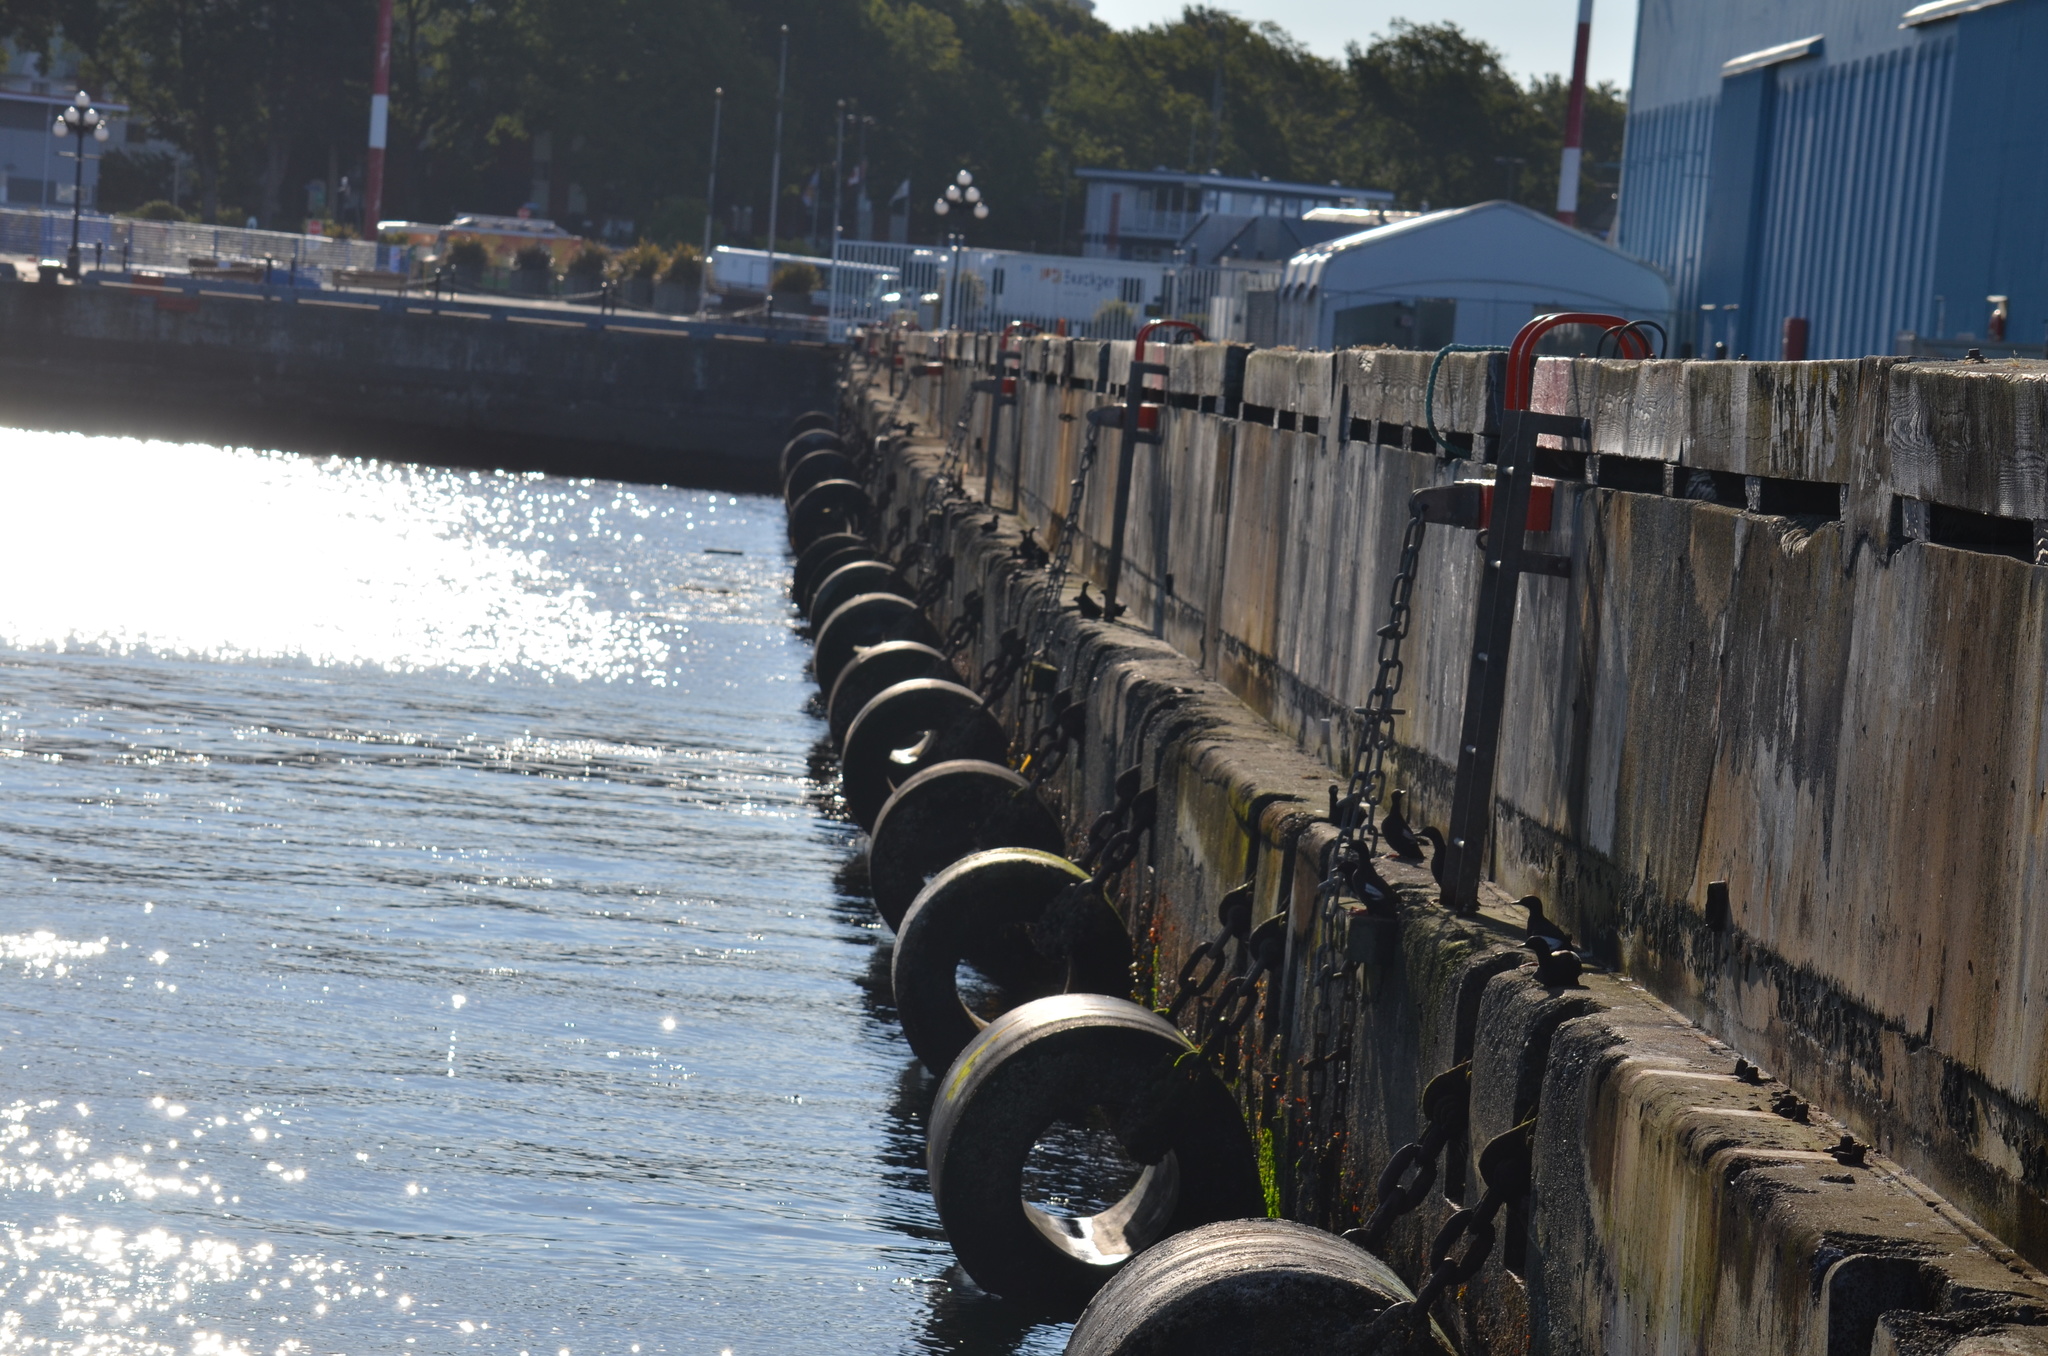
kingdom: Animalia
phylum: Chordata
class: Aves
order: Charadriiformes
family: Alcidae
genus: Cepphus
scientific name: Cepphus columba
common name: Pigeon guillemot
